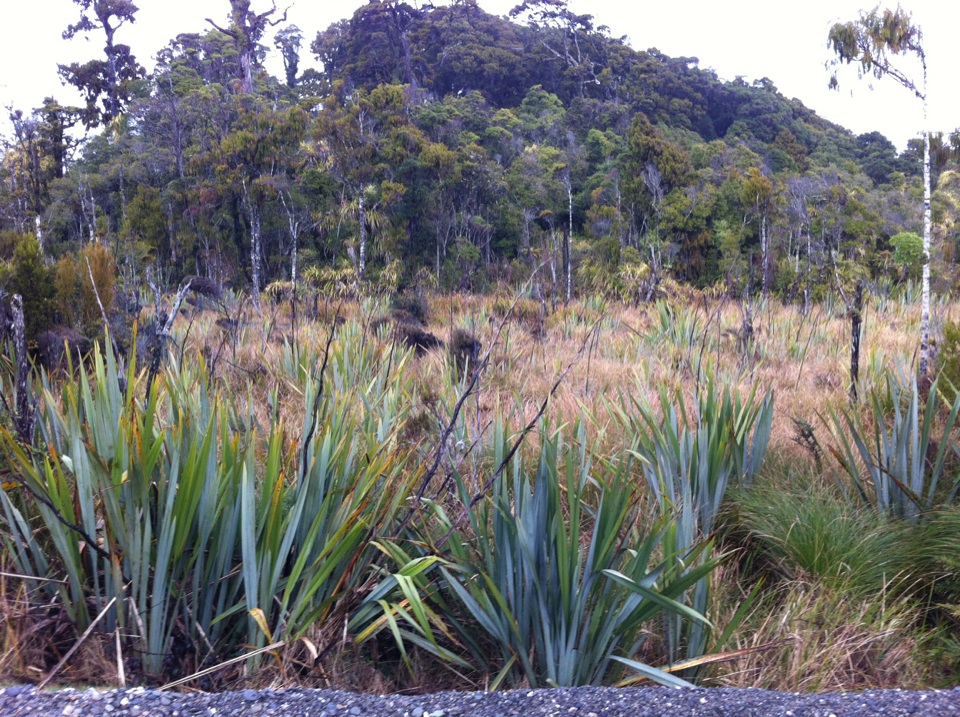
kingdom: Plantae
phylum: Tracheophyta
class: Liliopsida
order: Asparagales
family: Asphodelaceae
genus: Phormium
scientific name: Phormium tenax
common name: New zealand flax
